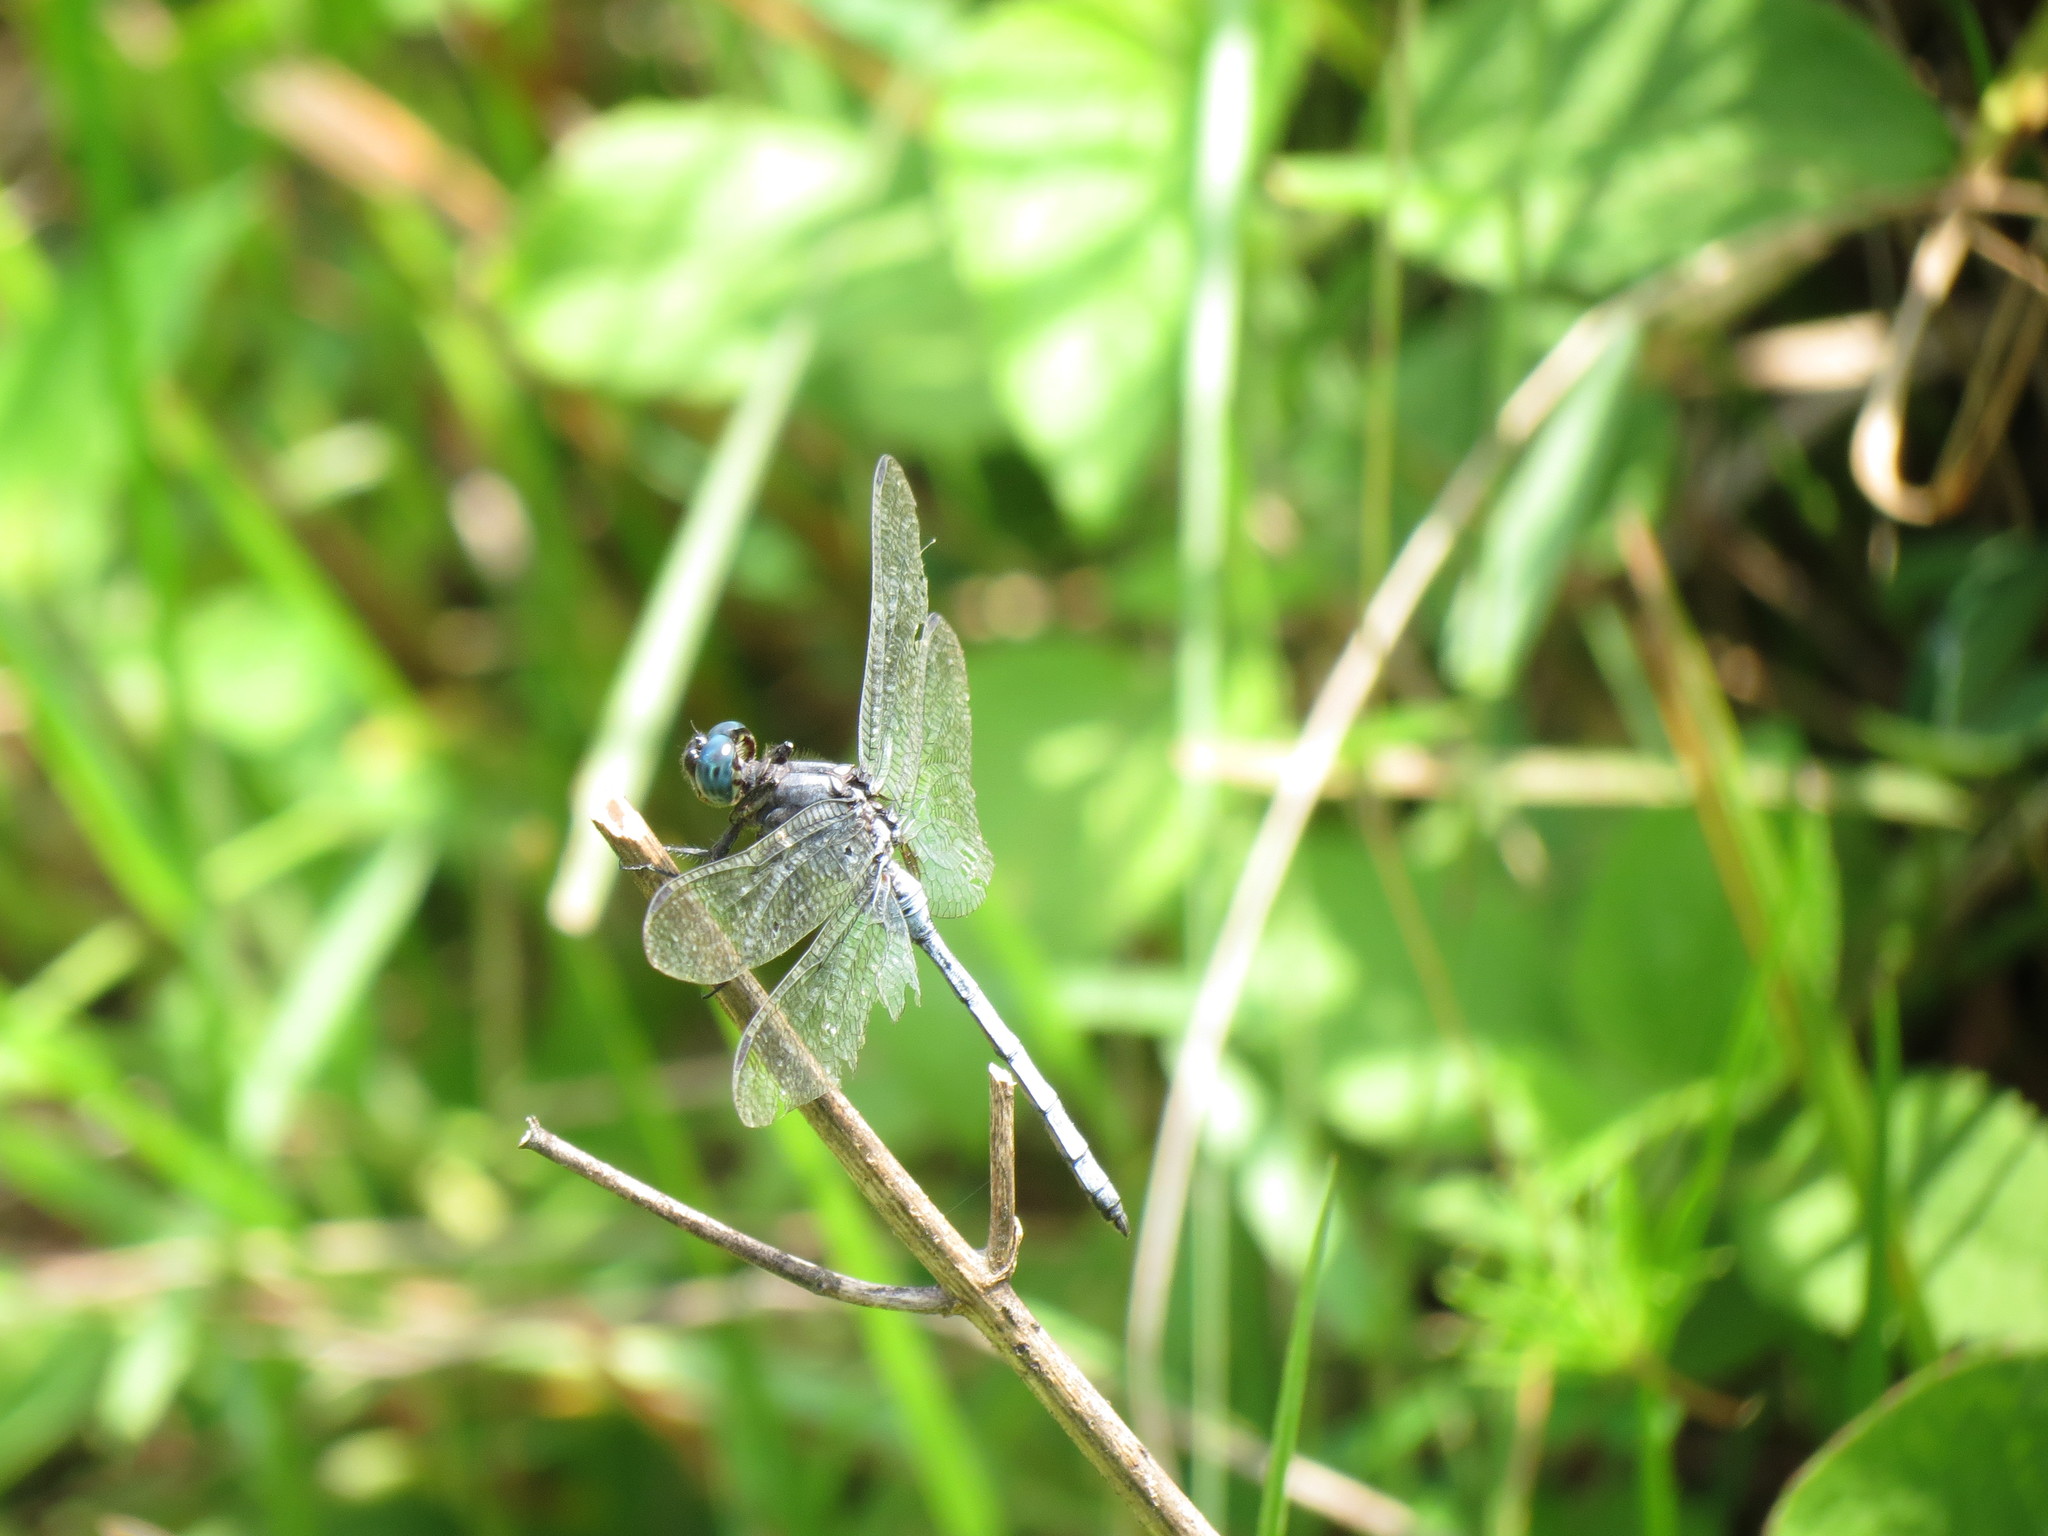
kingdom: Animalia
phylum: Arthropoda
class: Insecta
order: Odonata
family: Libellulidae
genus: Orthetrum
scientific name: Orthetrum julia
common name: Julia skimmer
